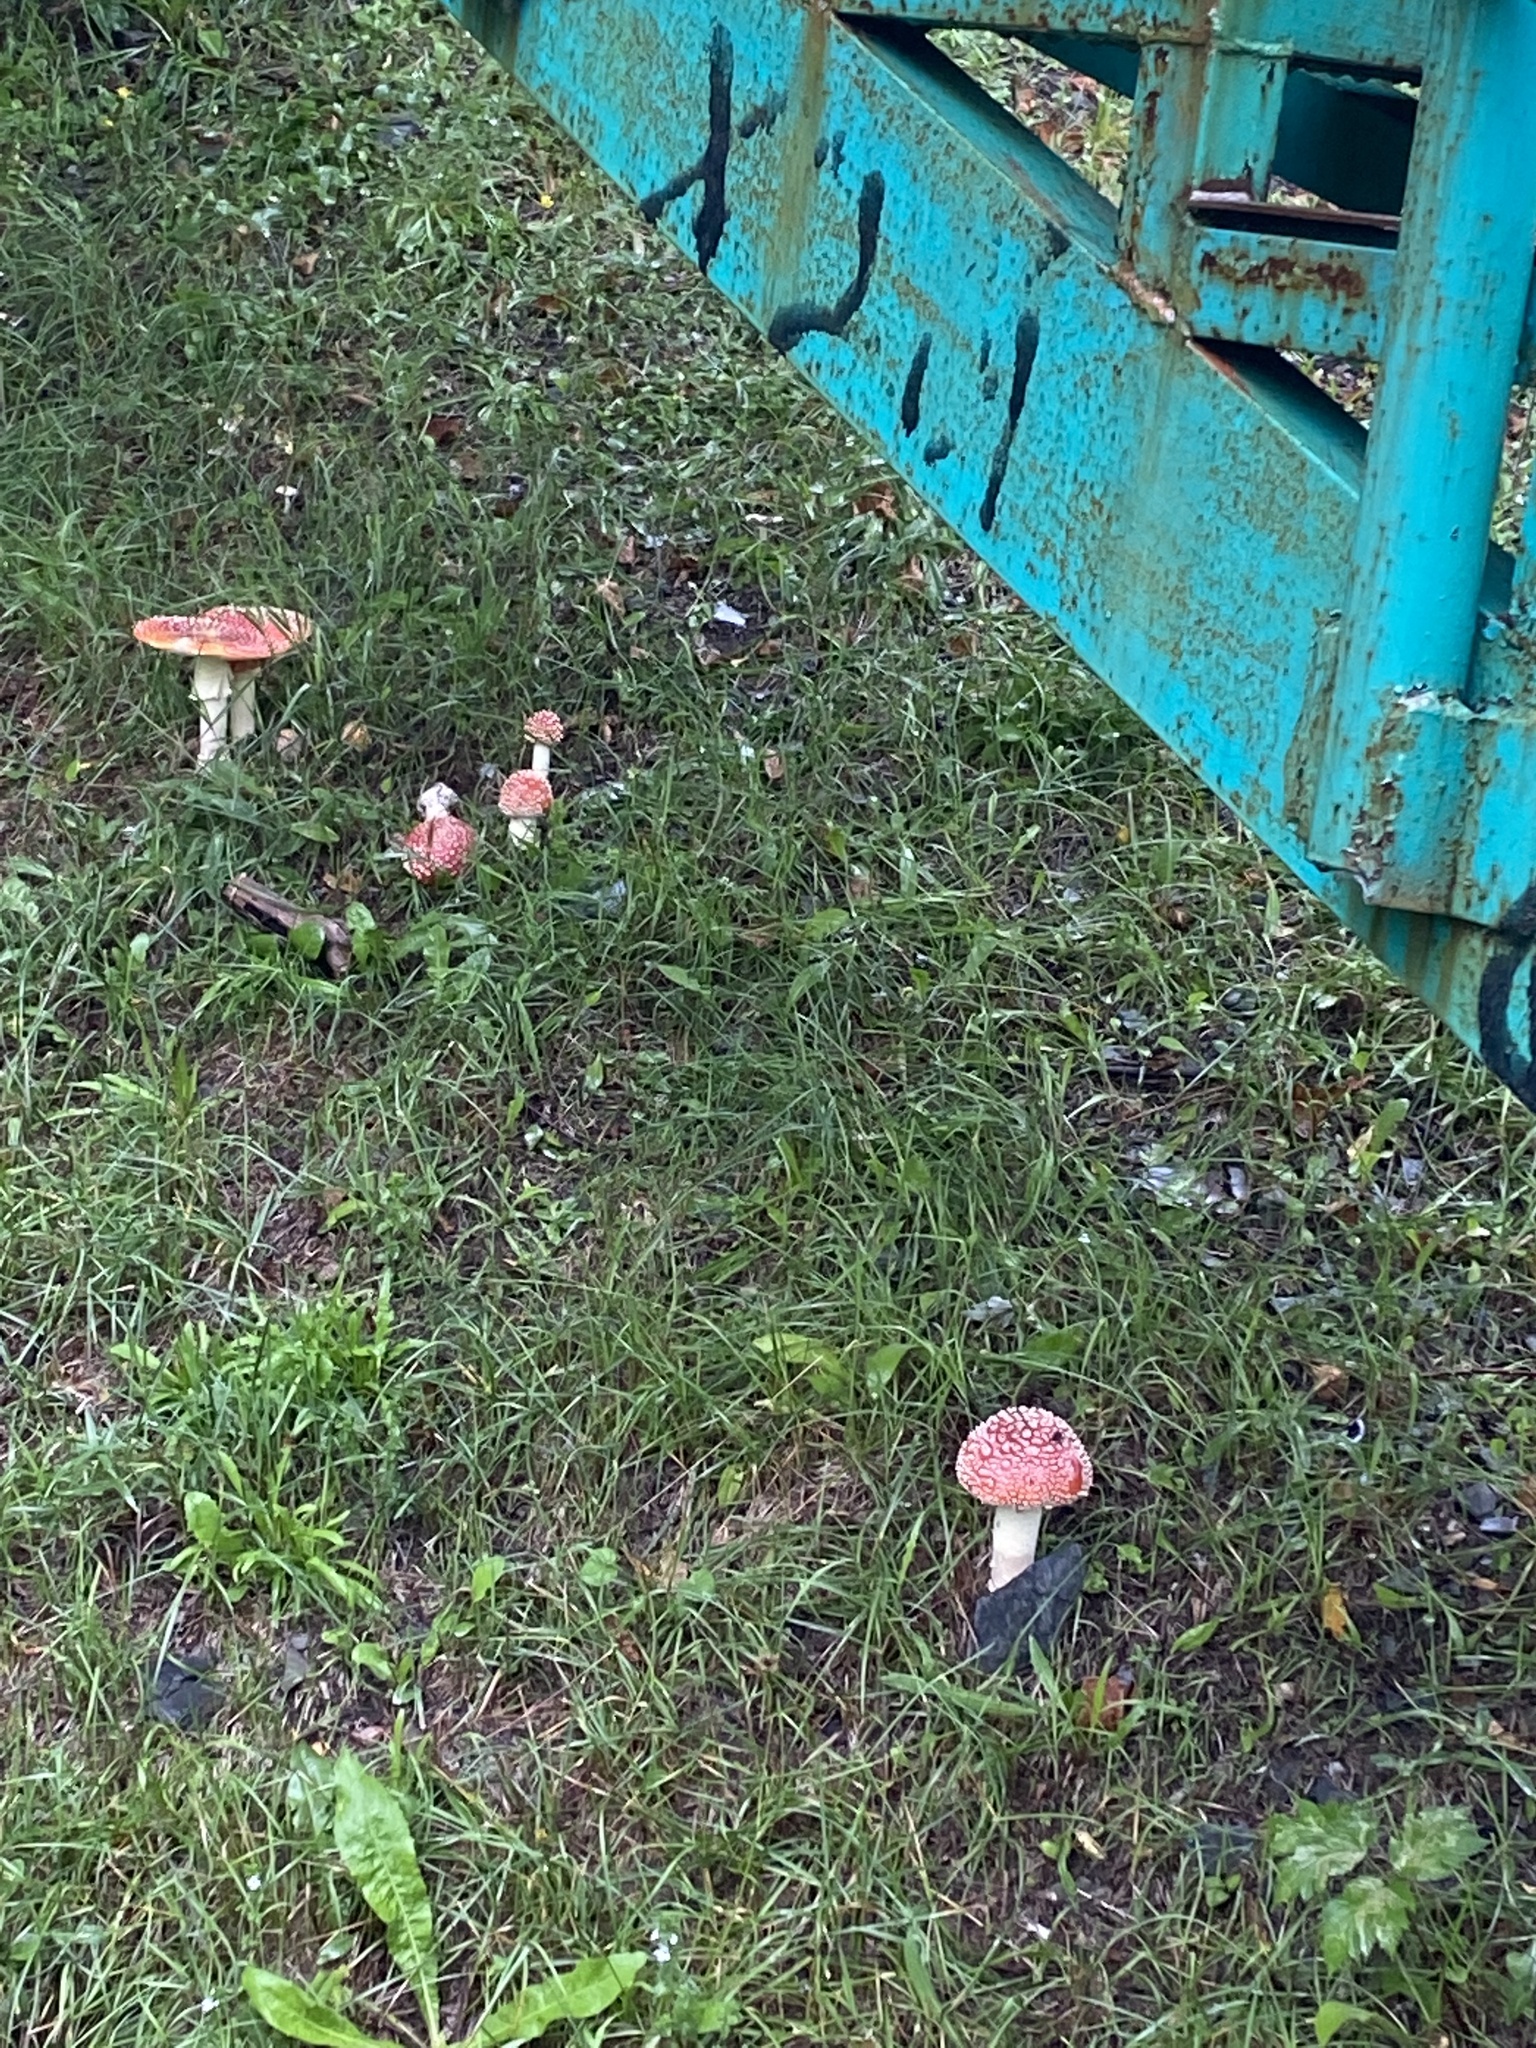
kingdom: Fungi
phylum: Basidiomycota
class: Agaricomycetes
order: Agaricales
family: Amanitaceae
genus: Amanita
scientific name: Amanita muscaria
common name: Fly agaric
